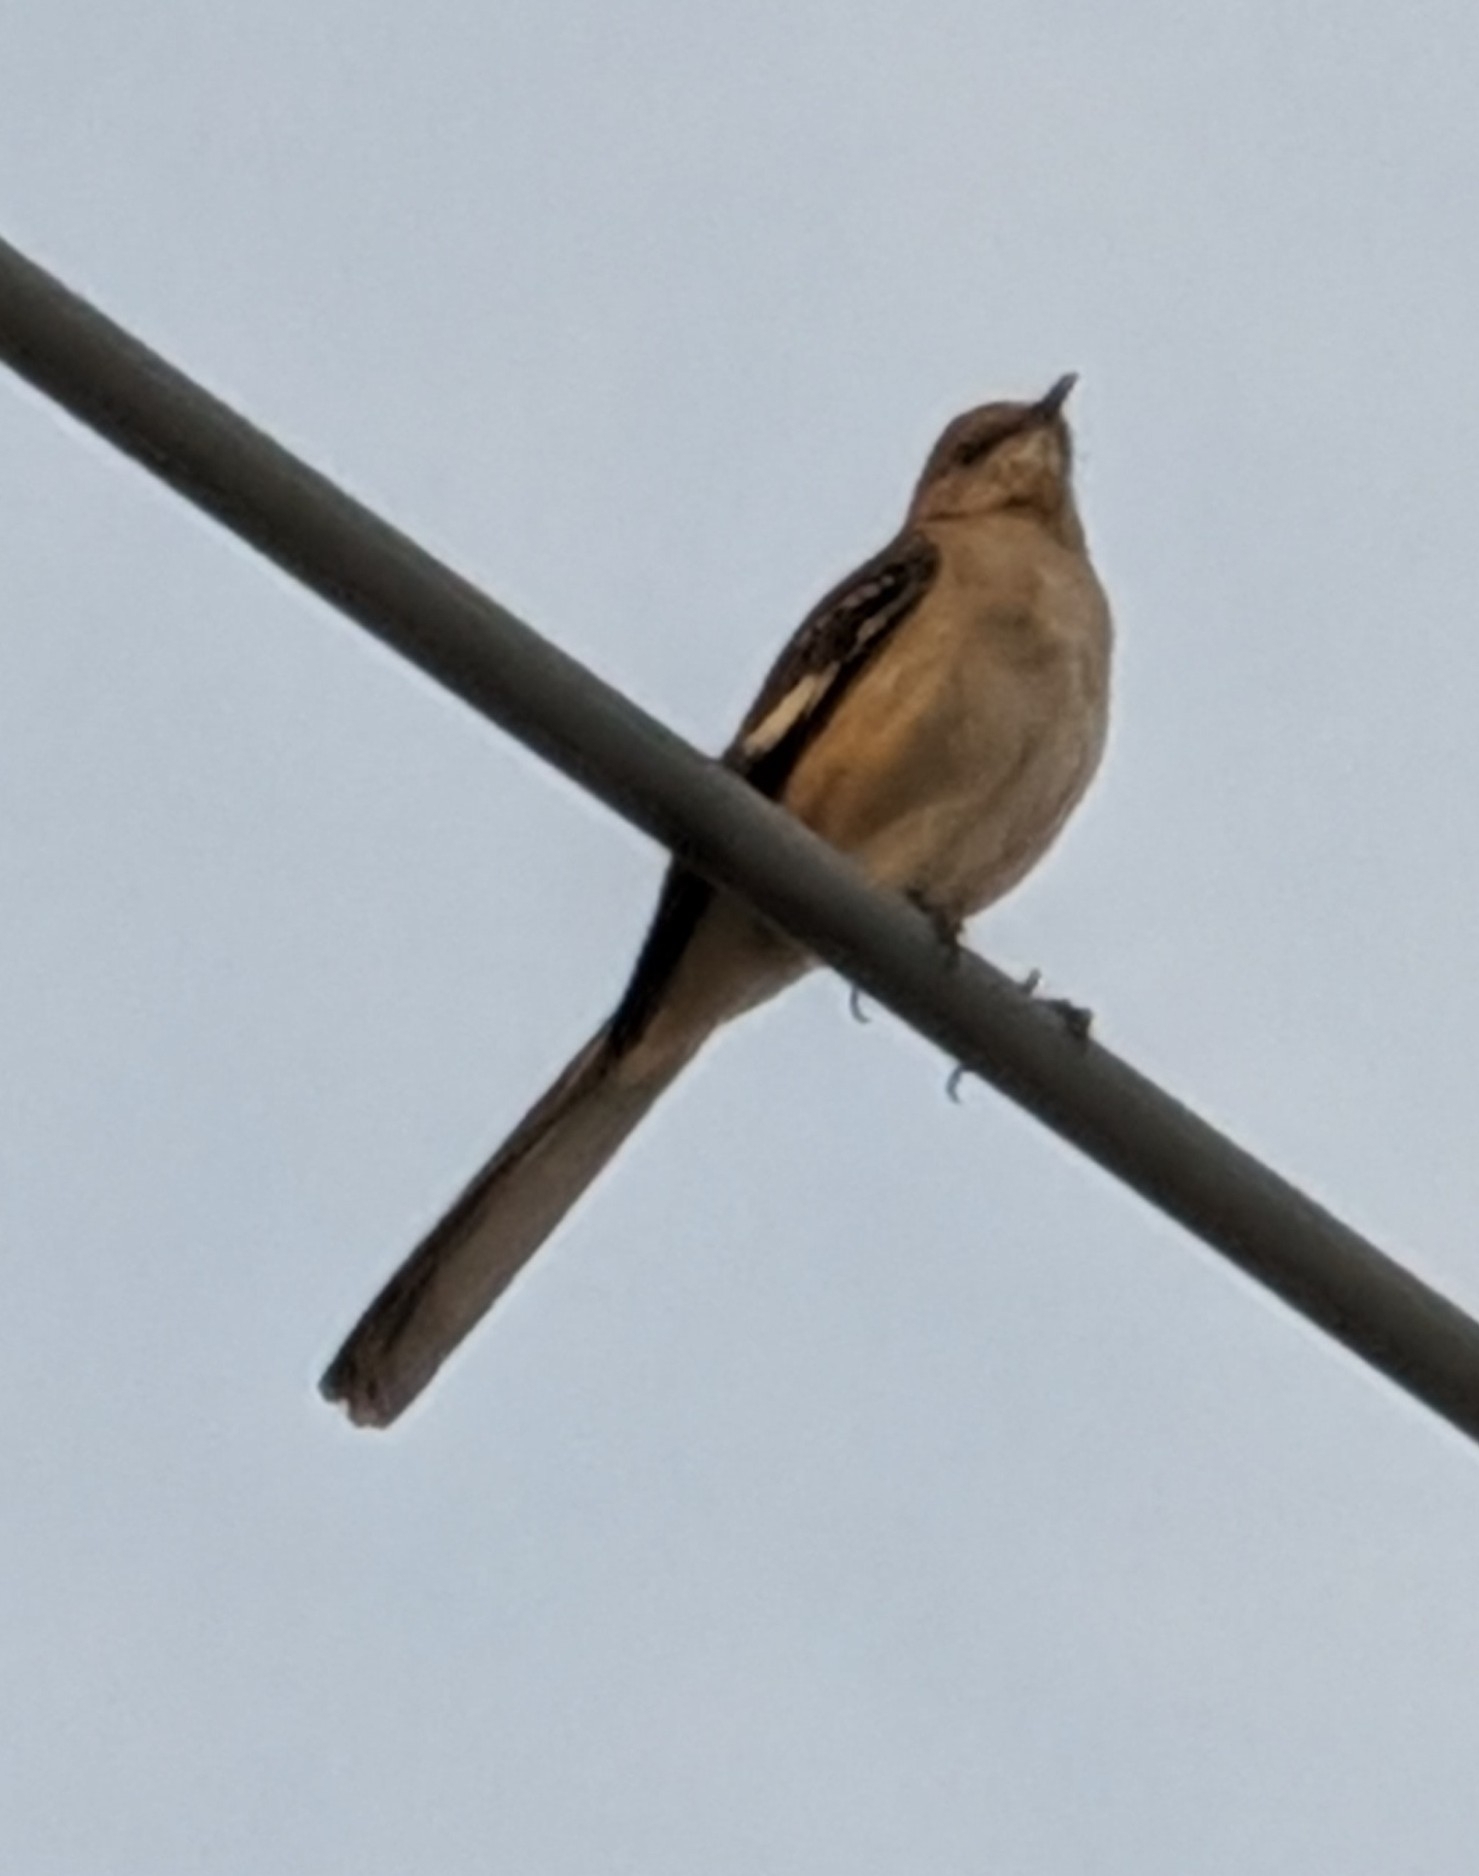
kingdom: Animalia
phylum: Chordata
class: Aves
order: Passeriformes
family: Mimidae
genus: Mimus
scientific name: Mimus polyglottos
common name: Northern mockingbird
